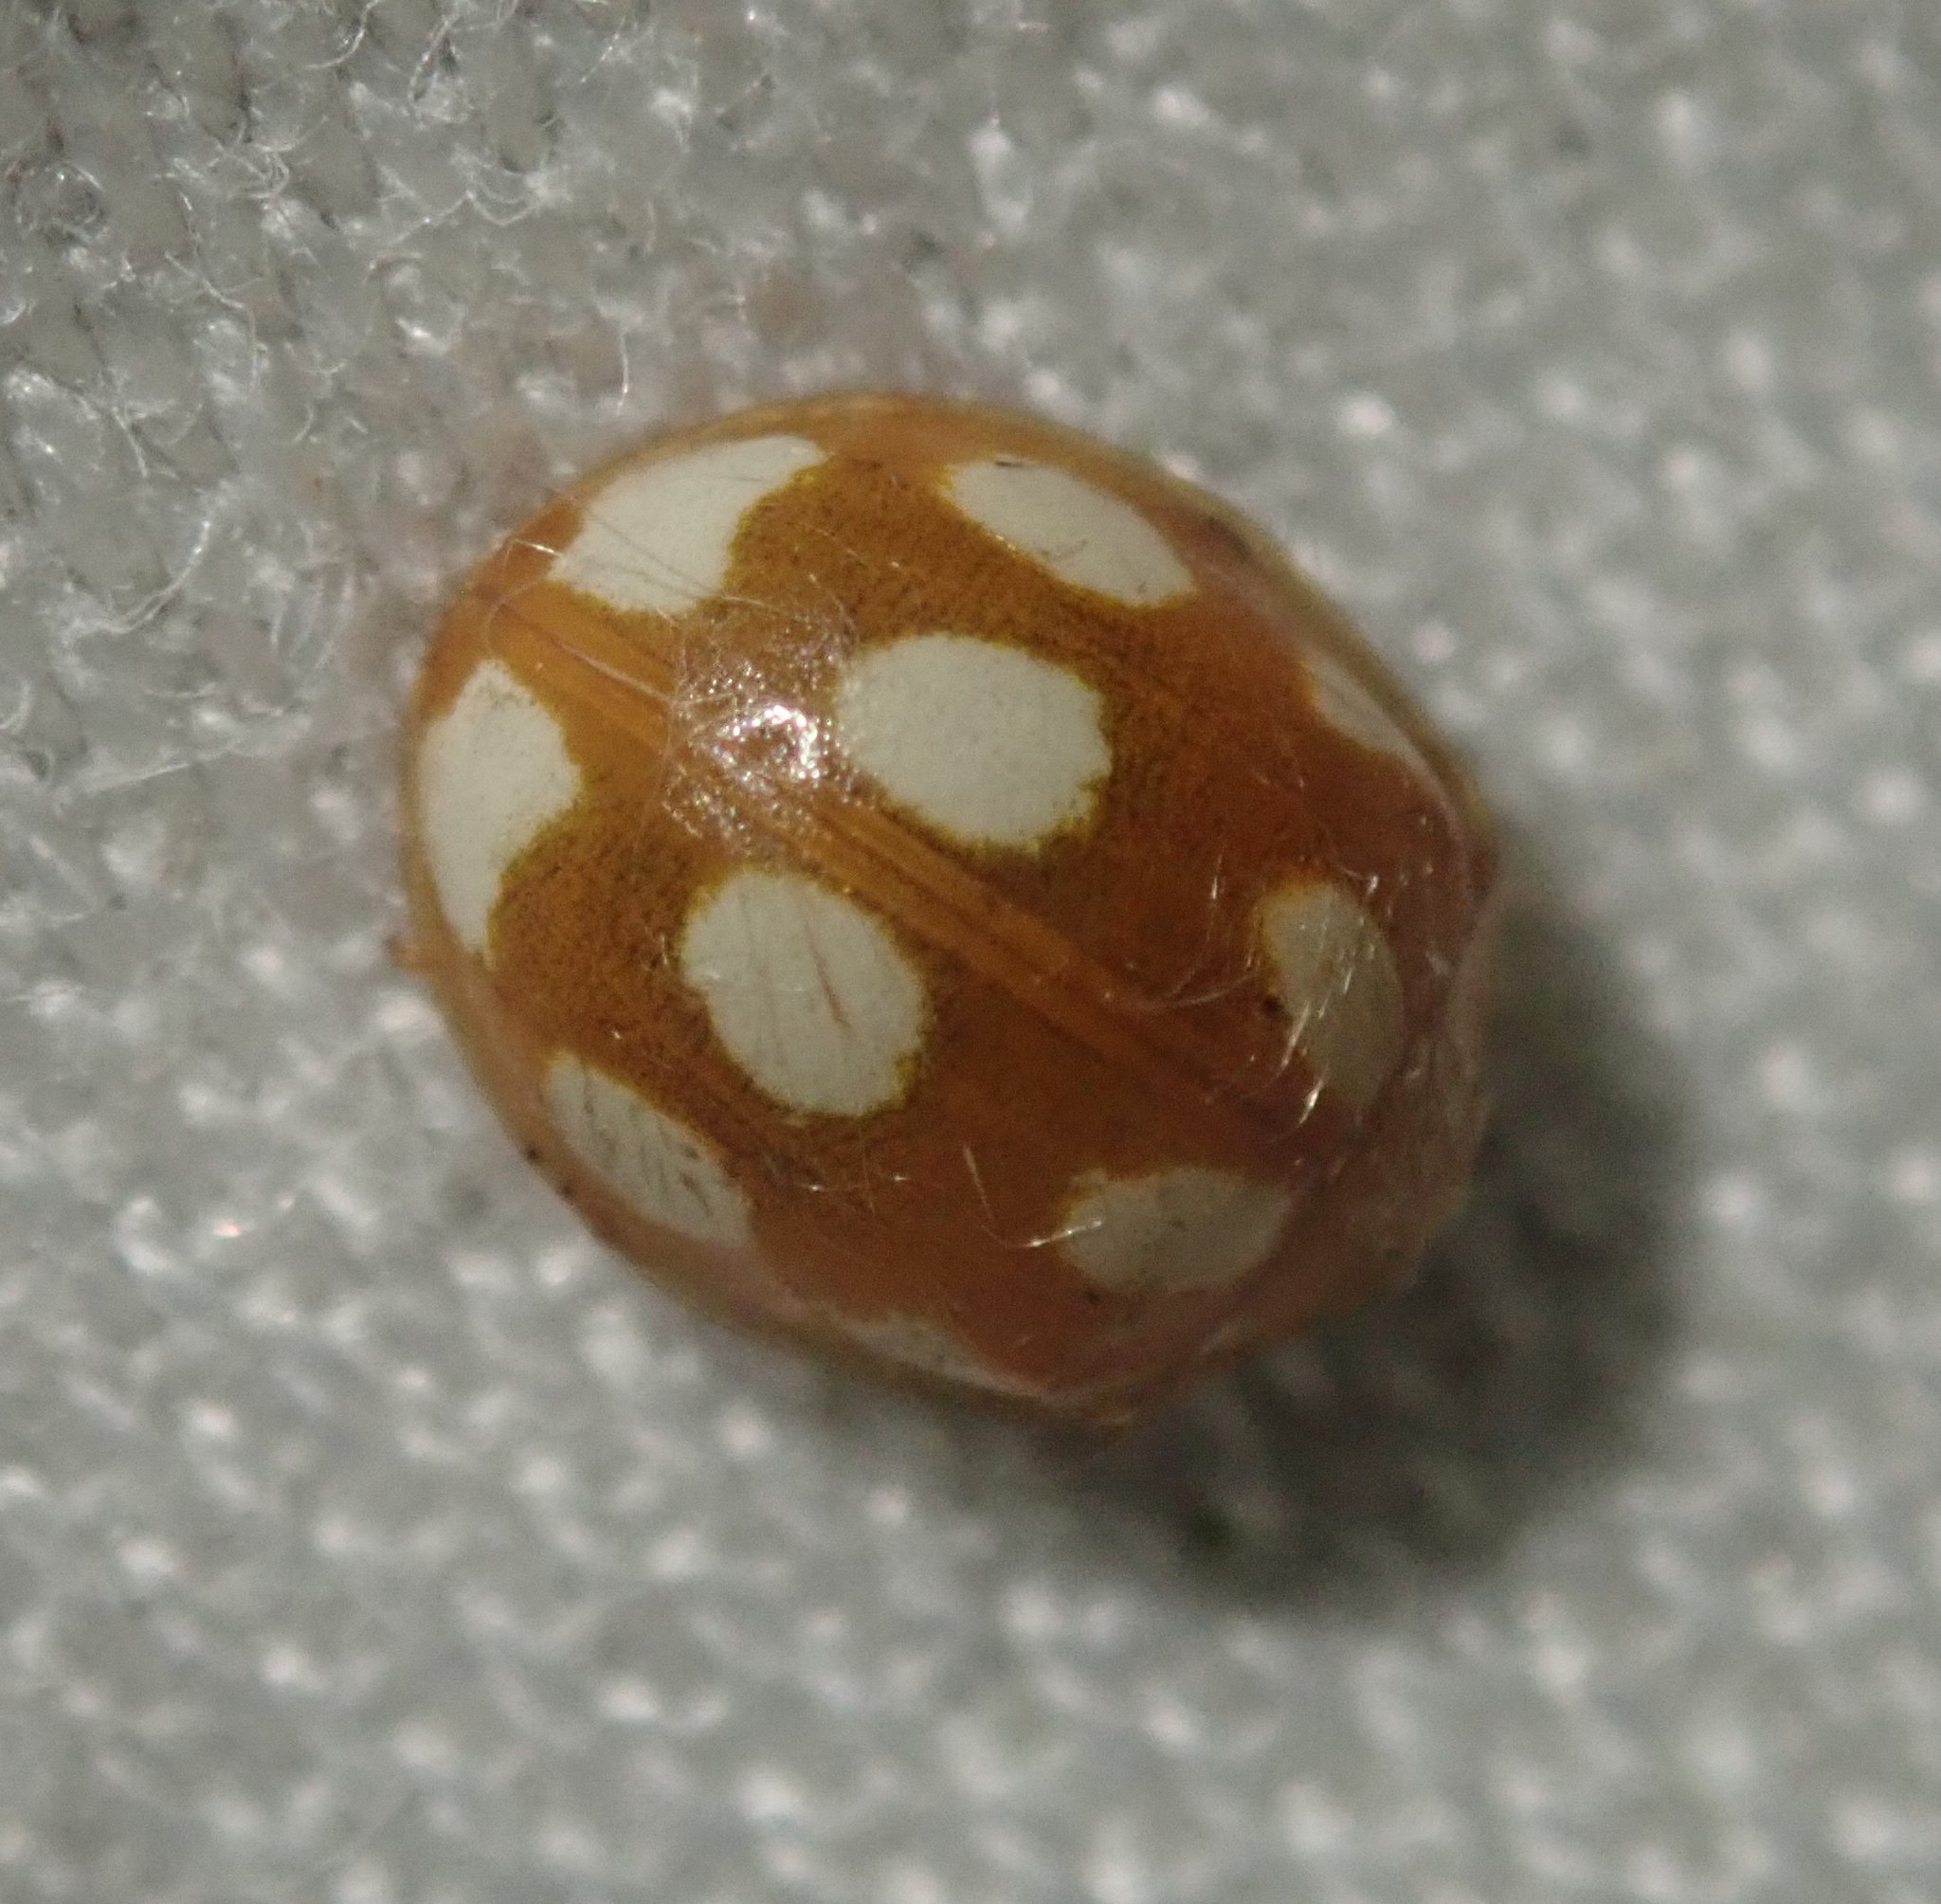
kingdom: Animalia
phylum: Arthropoda
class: Insecta
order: Coleoptera
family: Coccinellidae
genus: Calvia
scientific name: Calvia decemguttata
